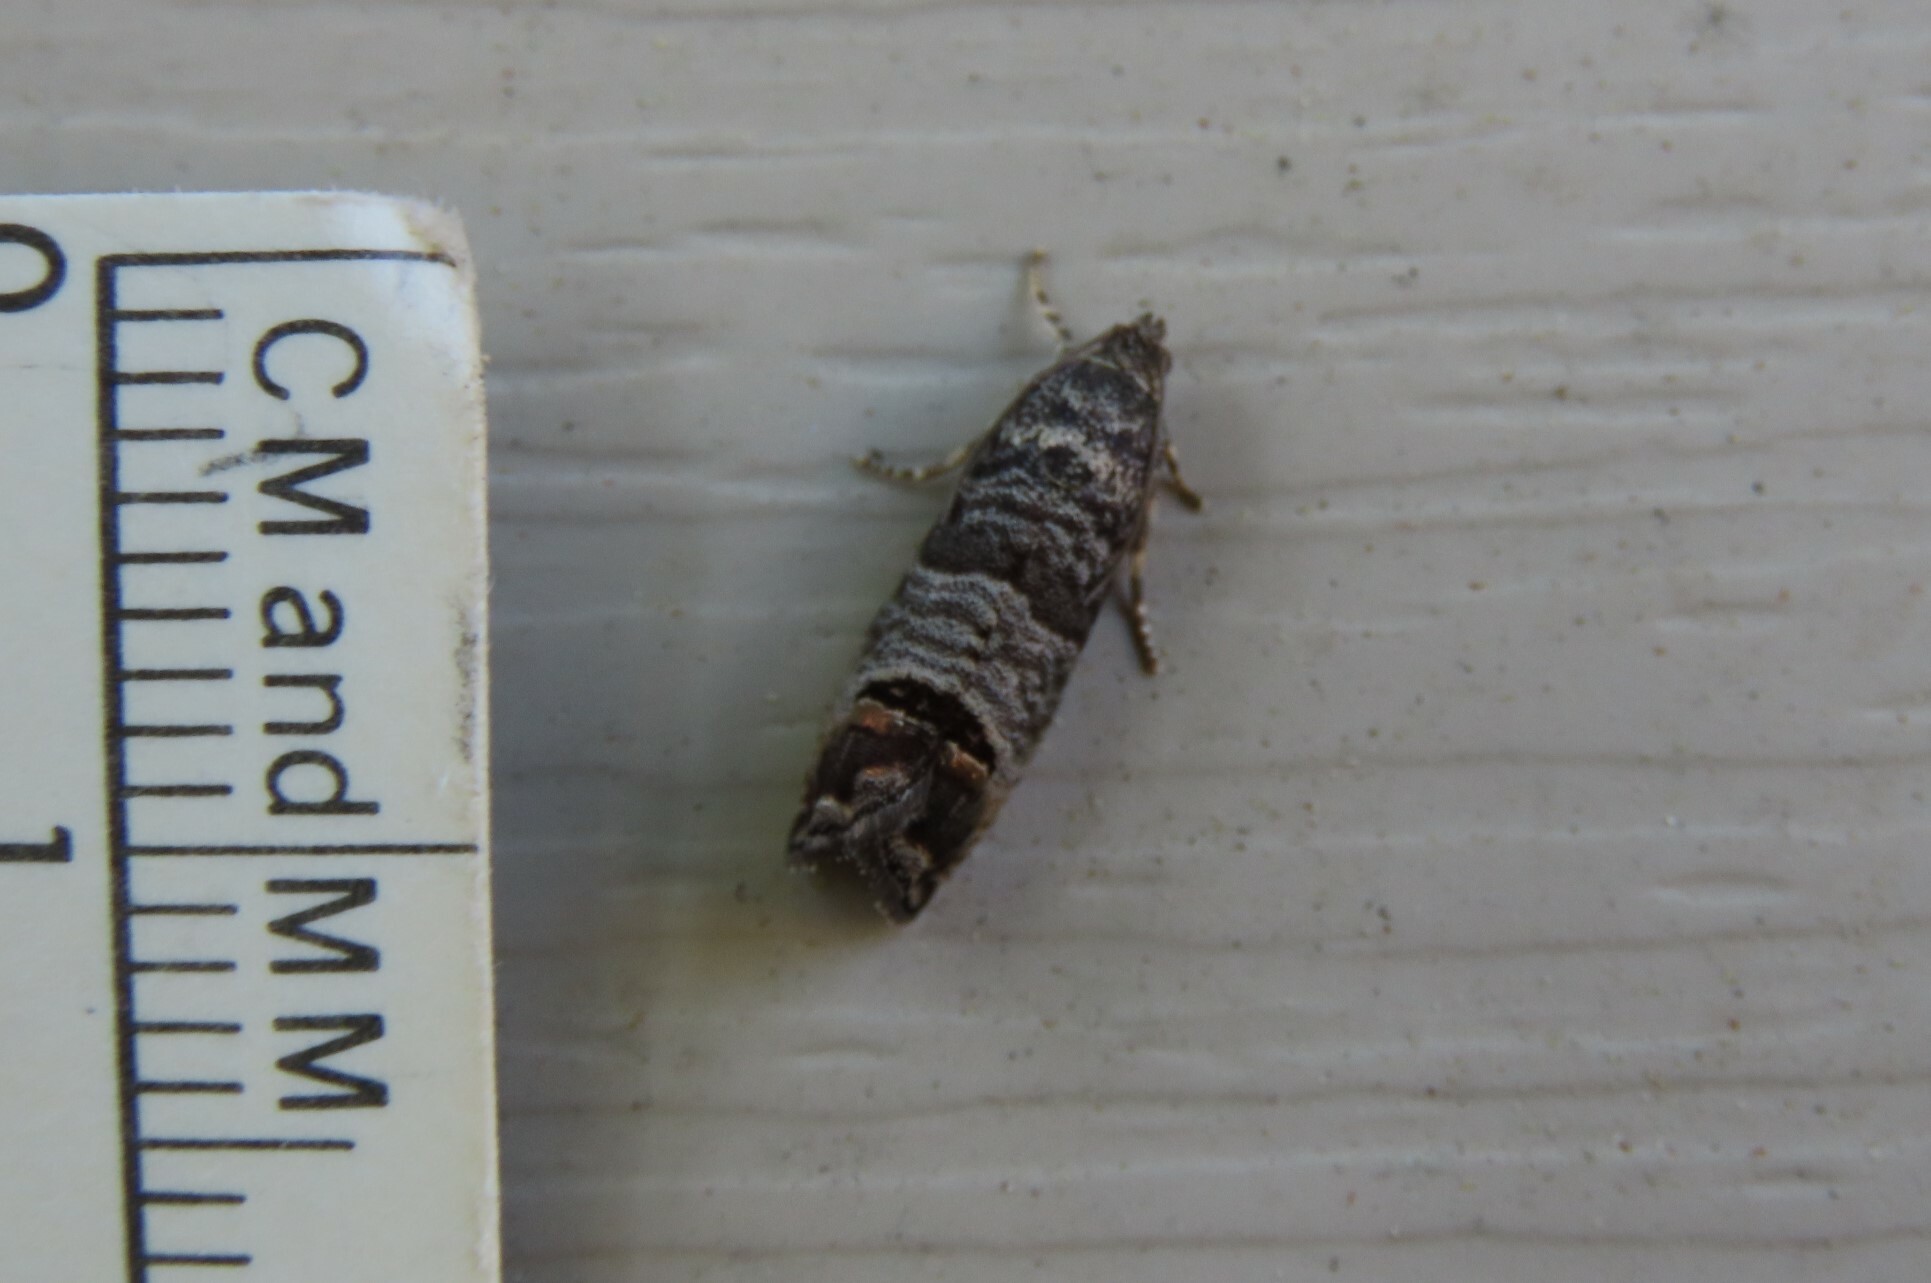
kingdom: Animalia
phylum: Arthropoda
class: Insecta
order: Lepidoptera
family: Tortricidae
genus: Cydia
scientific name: Cydia pomonella
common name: Codling moth
